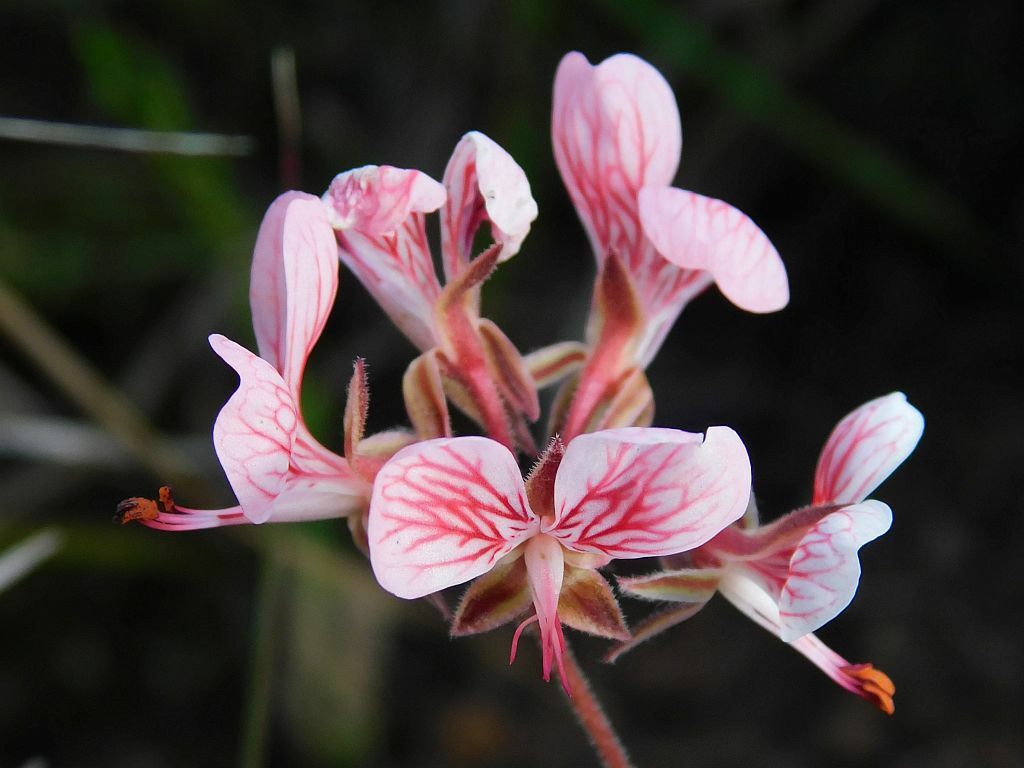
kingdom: Plantae
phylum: Tracheophyta
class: Magnoliopsida
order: Geraniales
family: Geraniaceae
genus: Pelargonium
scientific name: Pelargonium dipetalum
